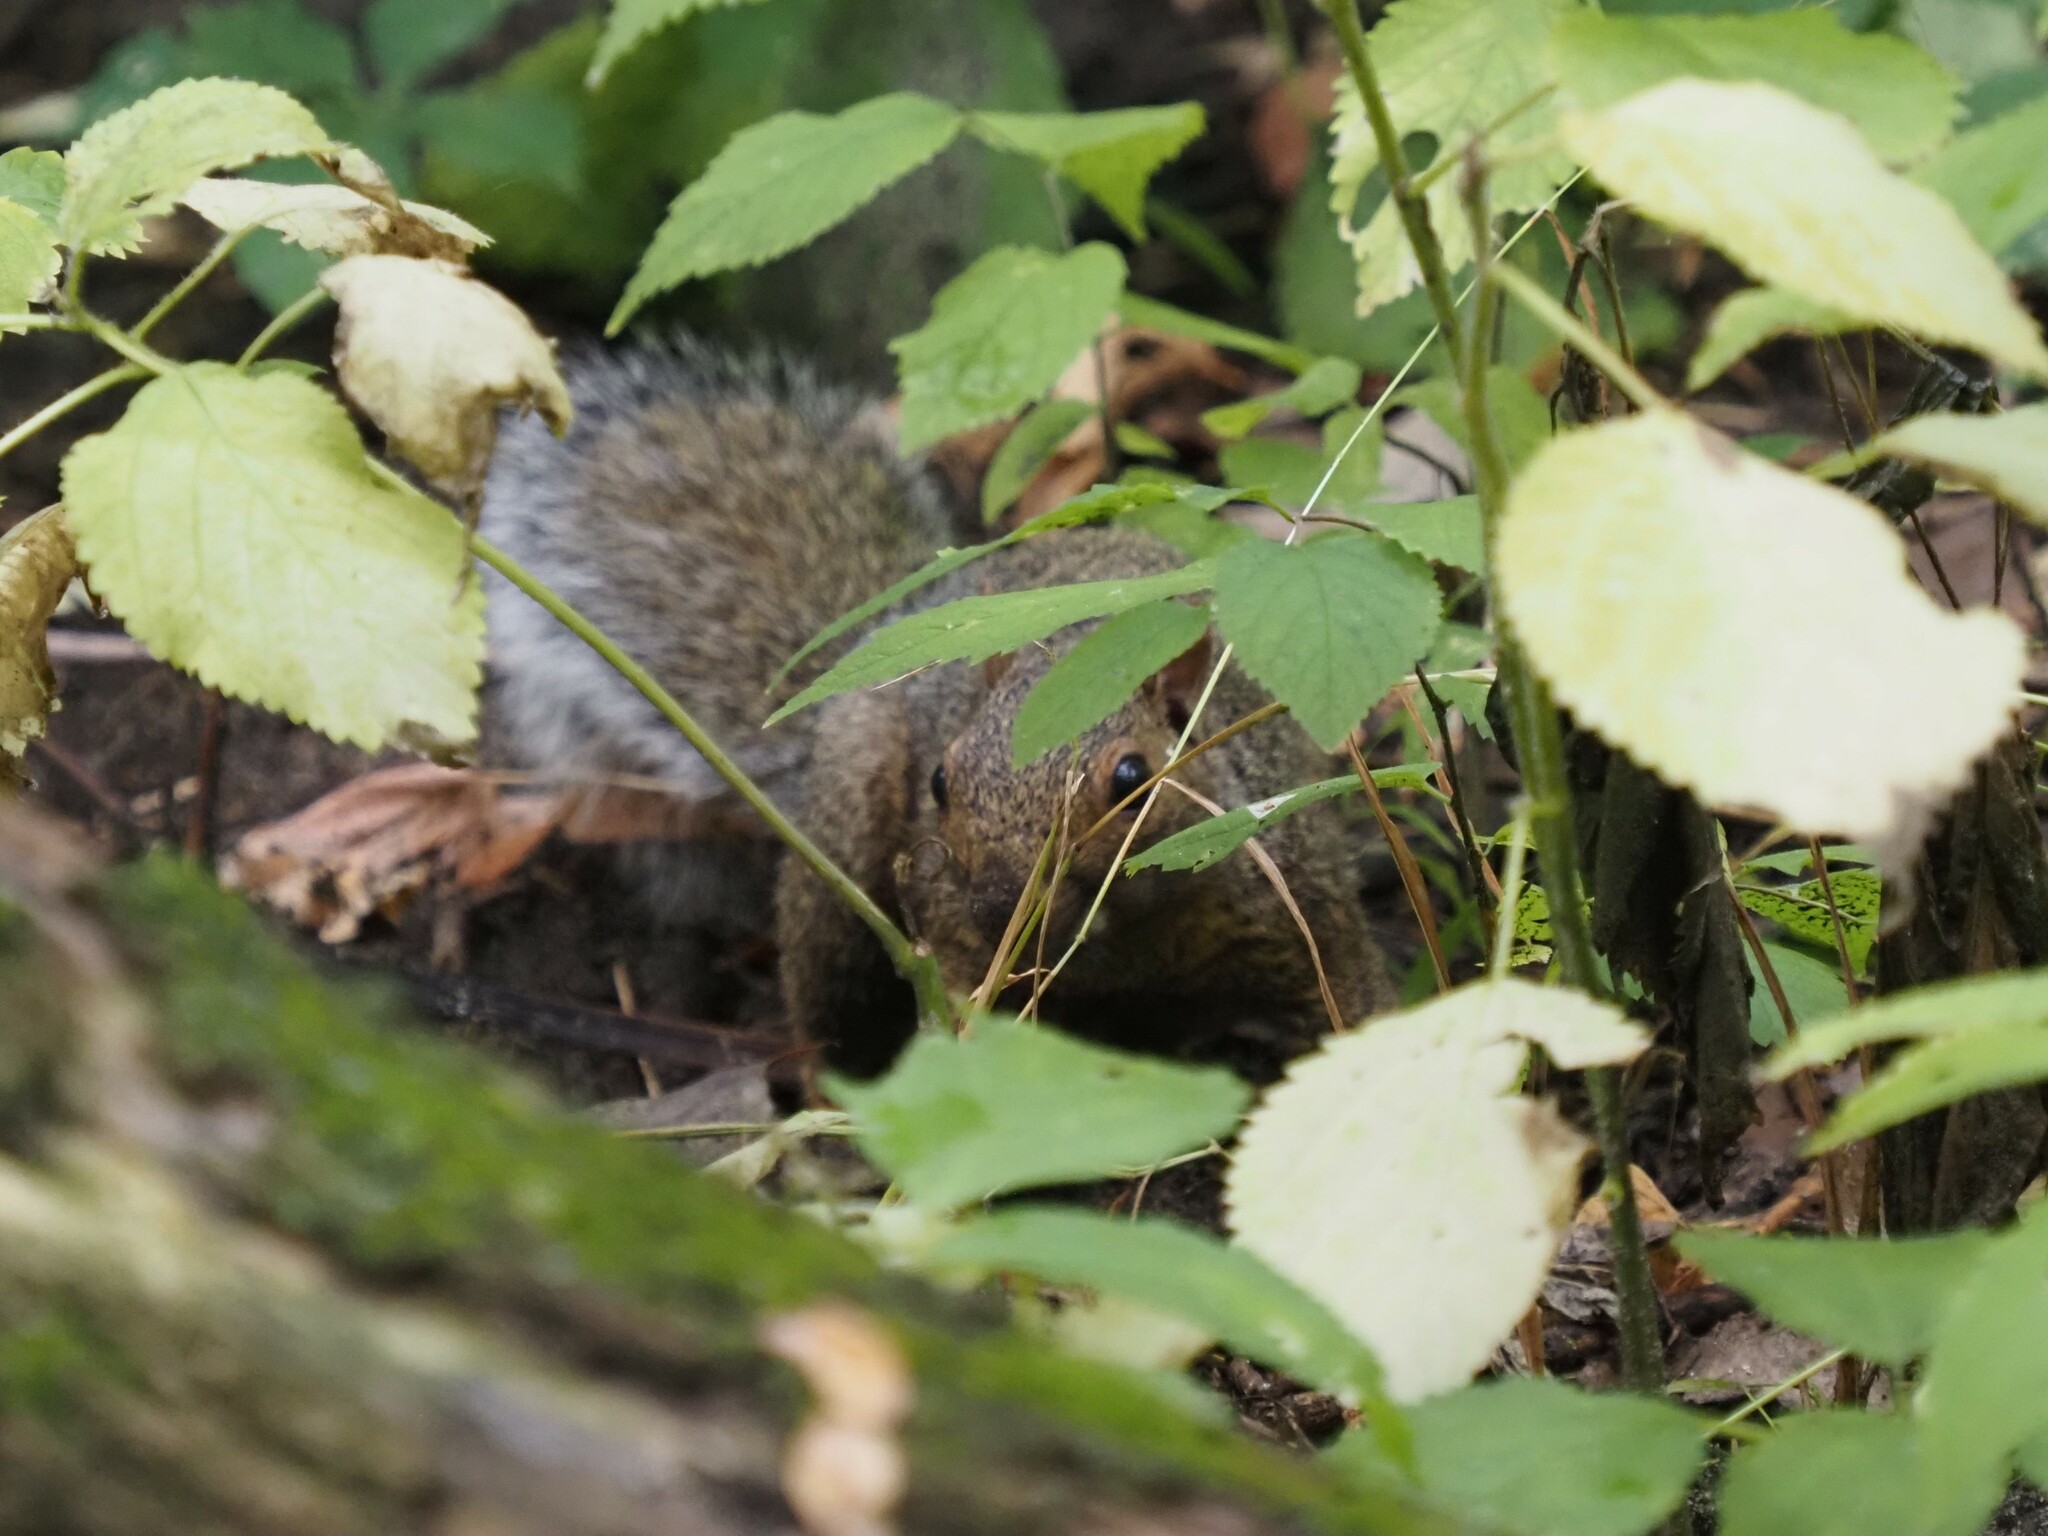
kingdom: Animalia
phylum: Chordata
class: Mammalia
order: Rodentia
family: Sciuridae
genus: Sciurus
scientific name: Sciurus carolinensis
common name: Eastern gray squirrel
